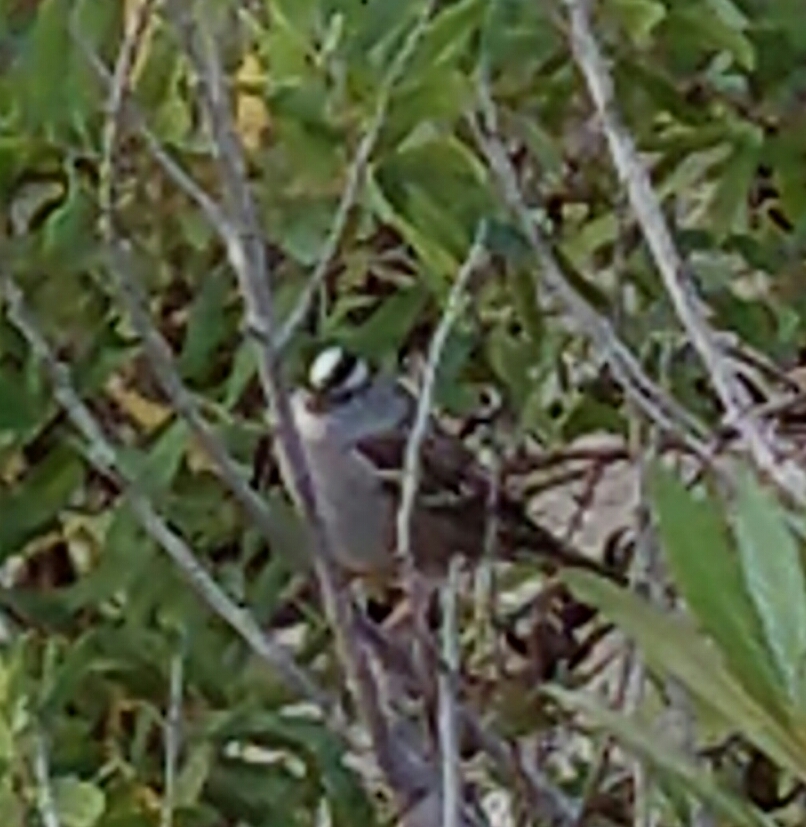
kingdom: Animalia
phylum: Chordata
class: Aves
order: Passeriformes
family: Passerellidae
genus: Zonotrichia
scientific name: Zonotrichia leucophrys
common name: White-crowned sparrow
